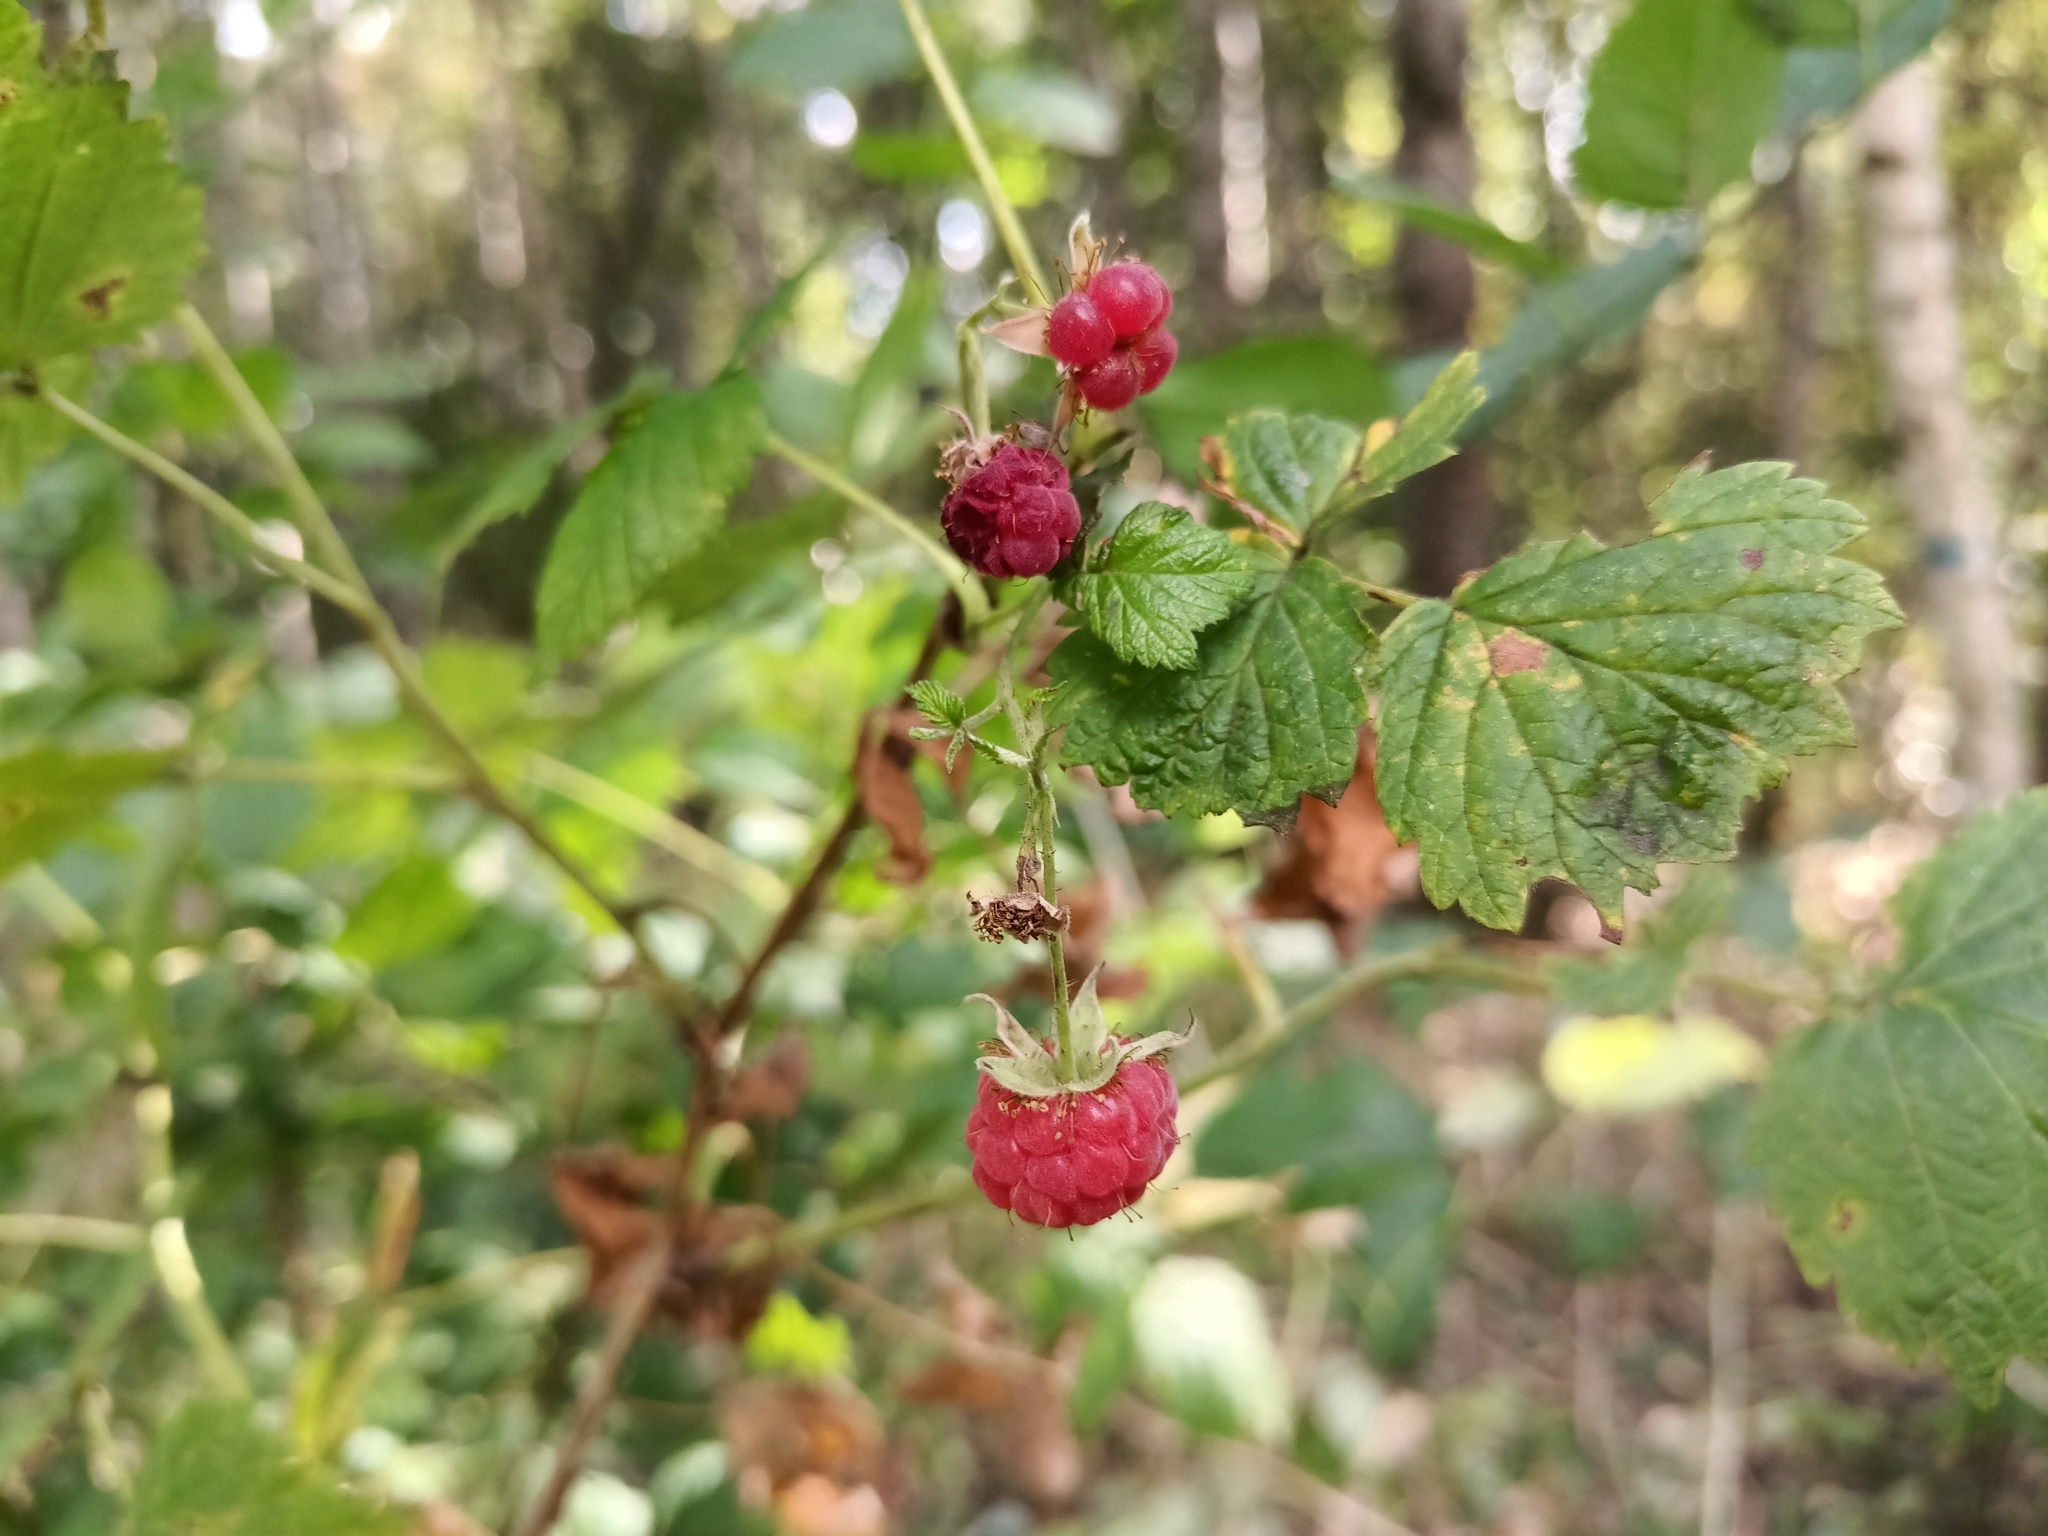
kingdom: Plantae
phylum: Tracheophyta
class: Magnoliopsida
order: Rosales
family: Rosaceae
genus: Rubus
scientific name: Rubus idaeus
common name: Raspberry
